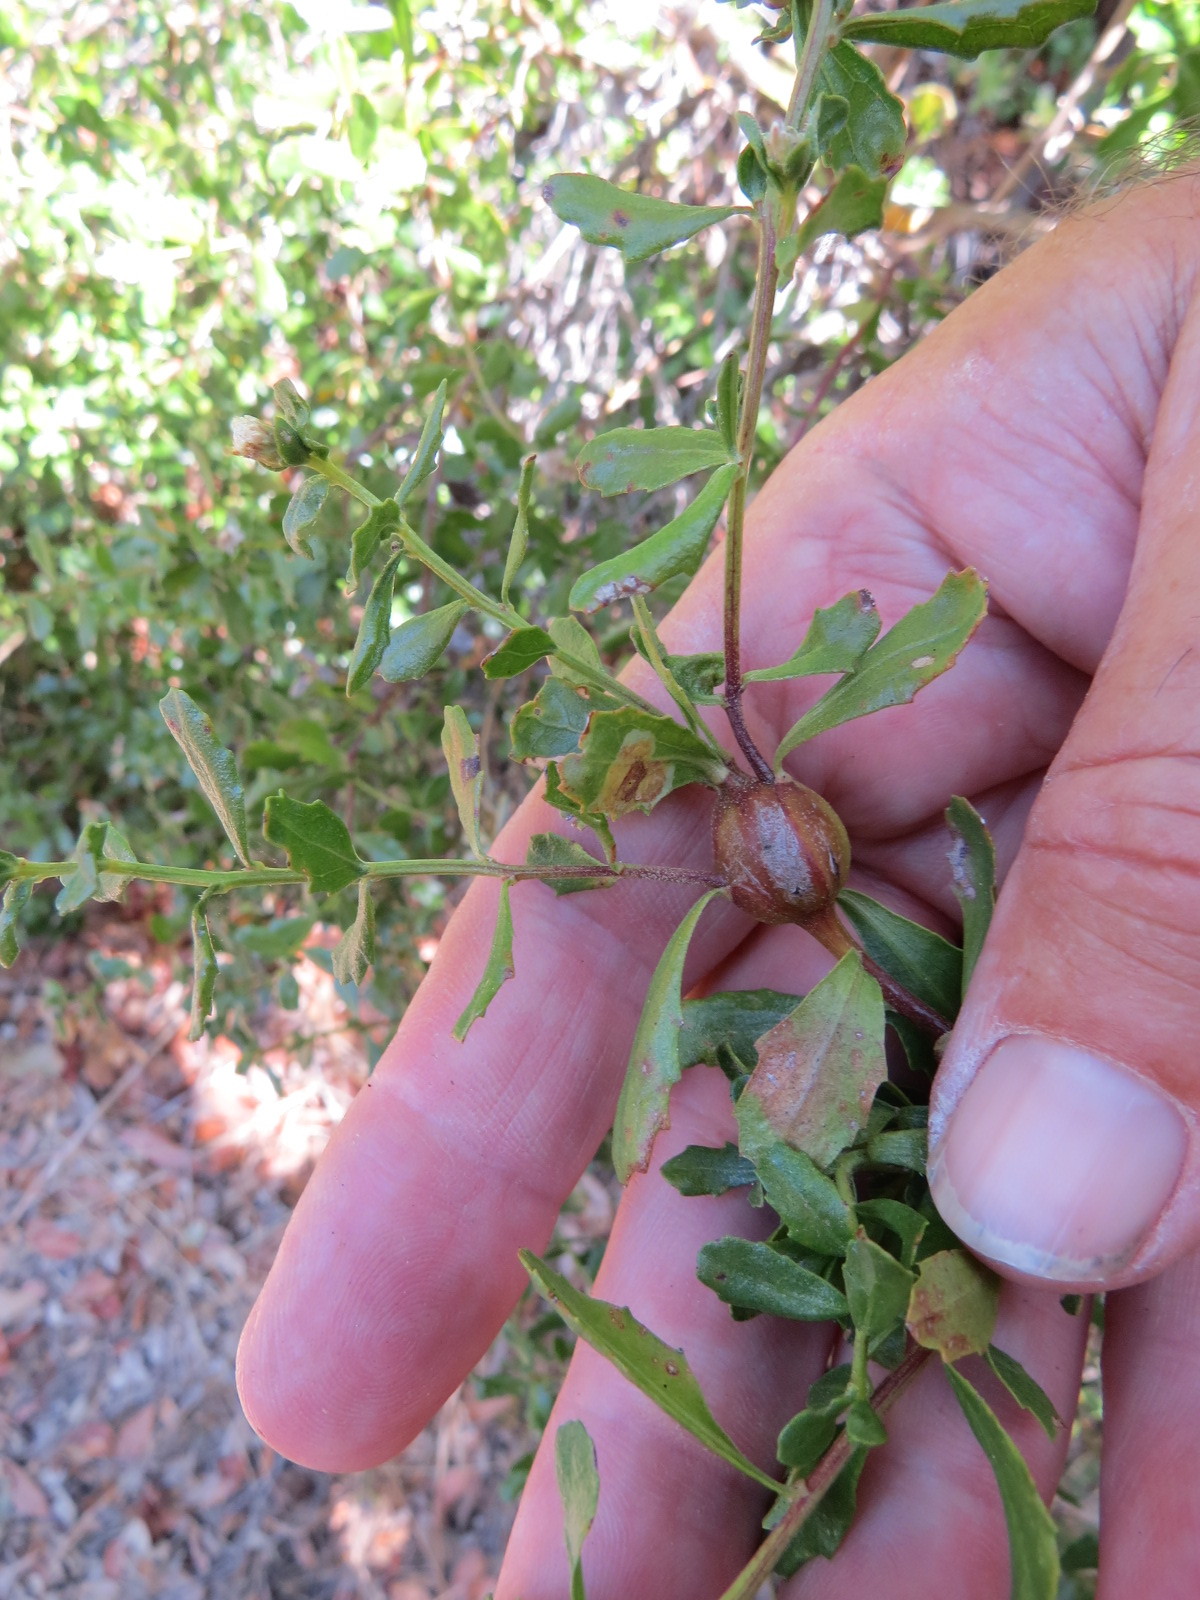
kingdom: Animalia
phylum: Arthropoda
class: Insecta
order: Lepidoptera
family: Gelechiidae
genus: Gnorimoschema
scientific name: Gnorimoschema baccharisella
